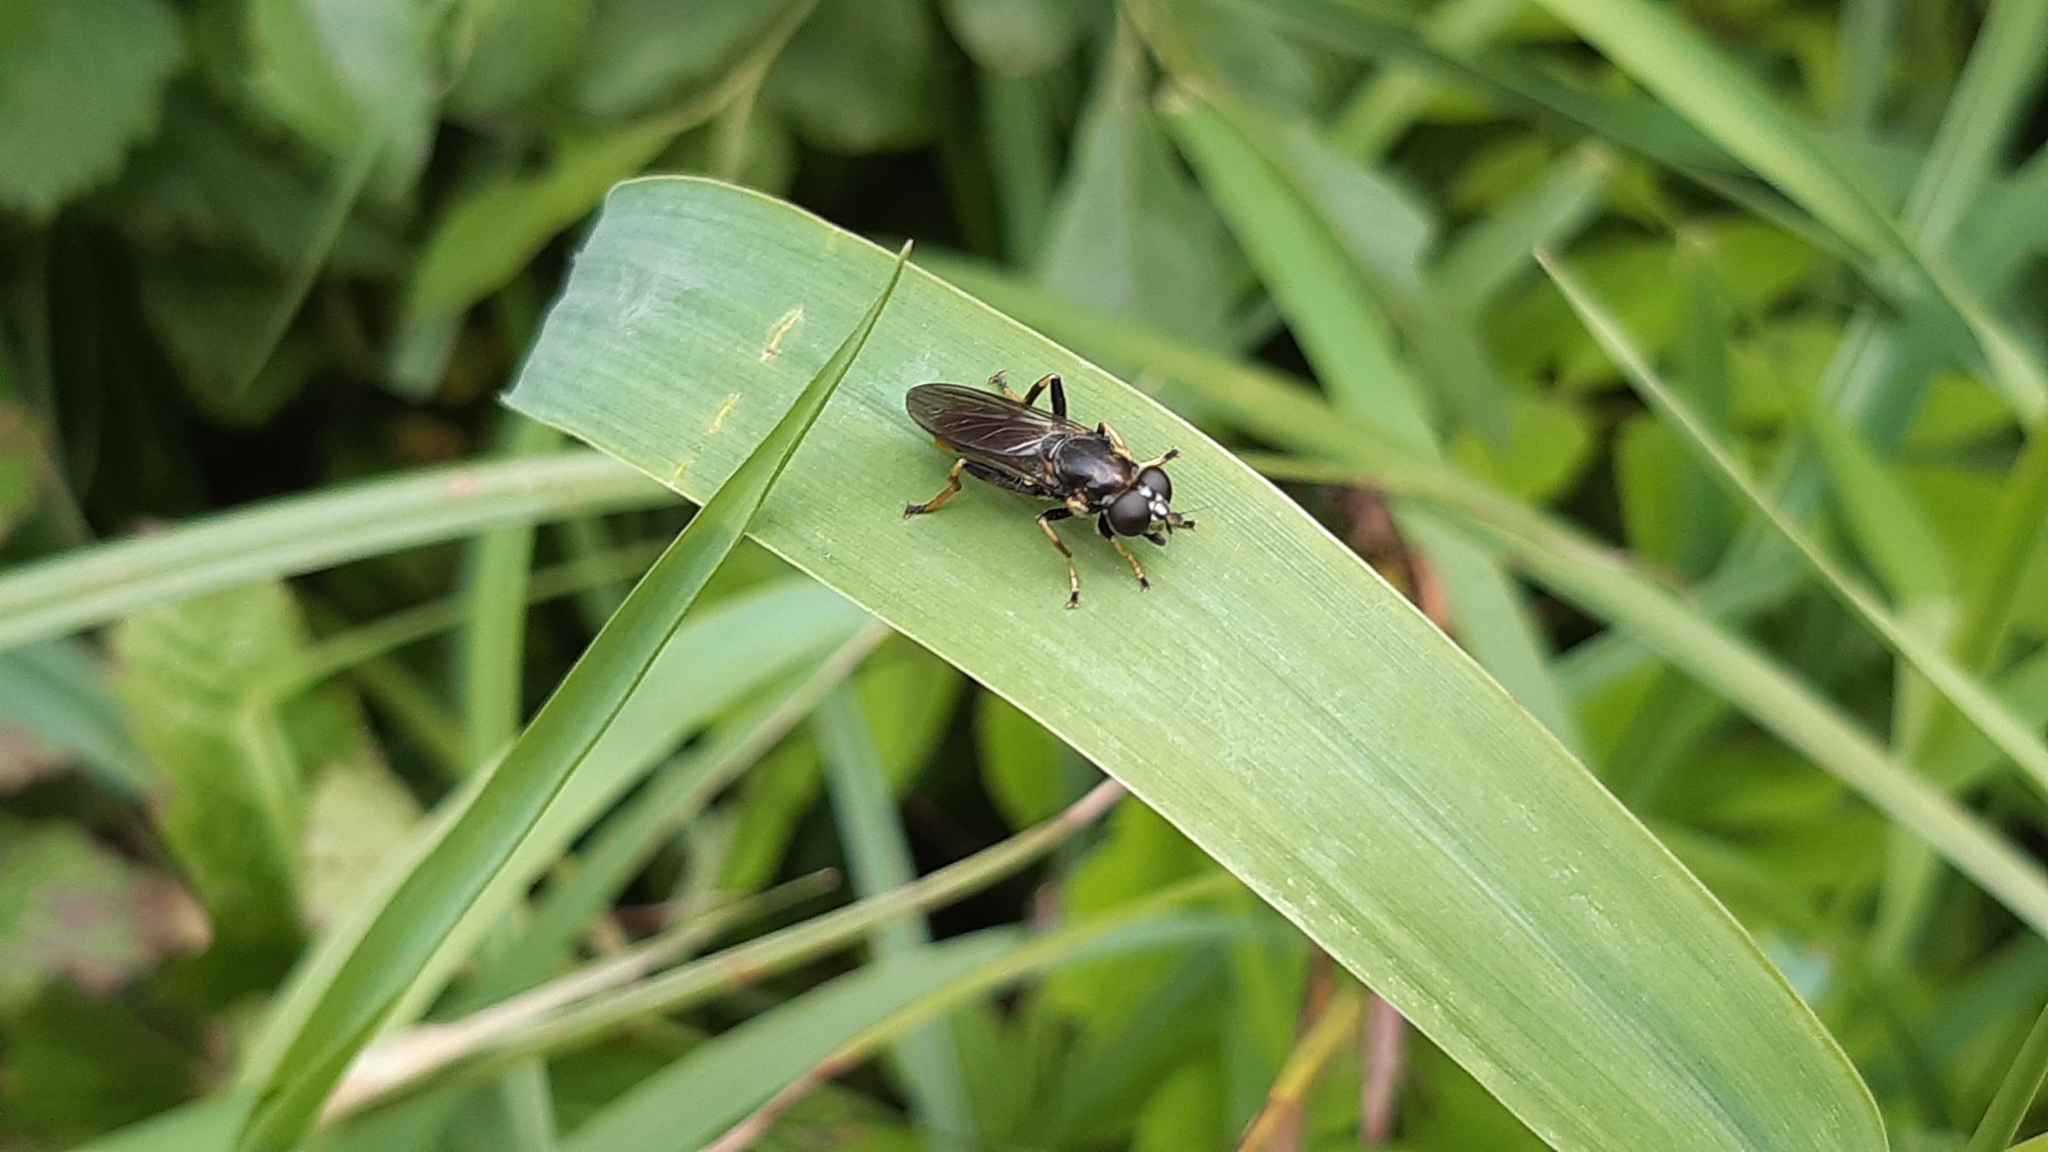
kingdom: Animalia
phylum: Arthropoda
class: Insecta
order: Diptera
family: Syrphidae
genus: Xylota
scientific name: Xylota sylvarum
